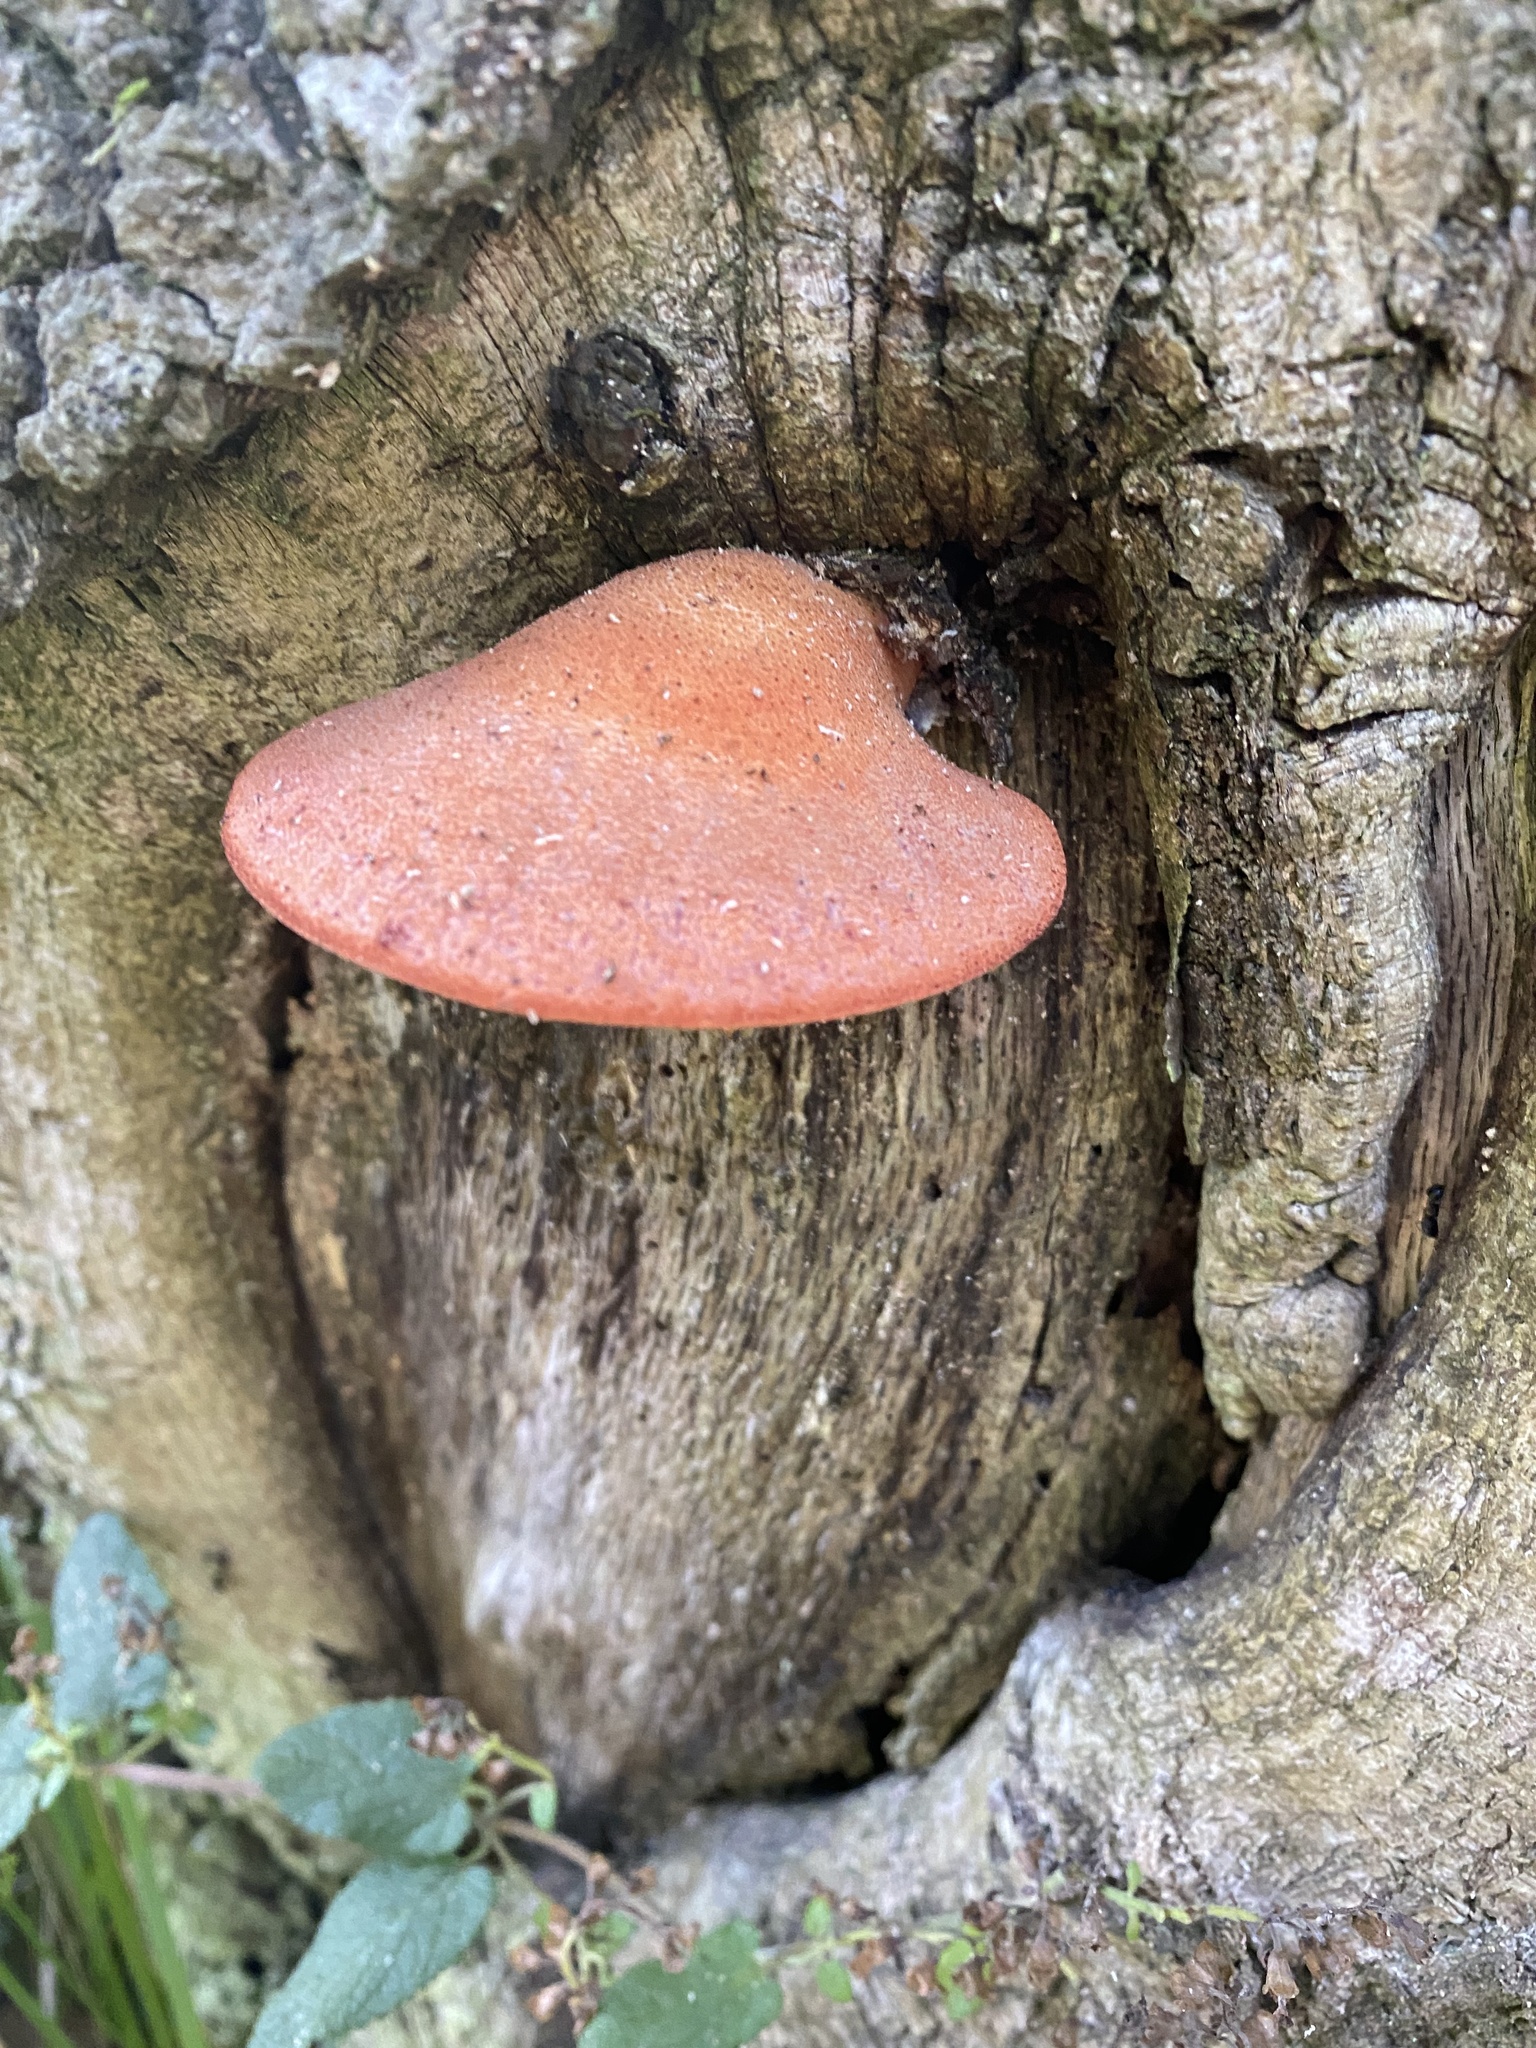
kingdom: Fungi
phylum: Basidiomycota
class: Agaricomycetes
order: Agaricales
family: Fistulinaceae
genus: Fistulina
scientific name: Fistulina hepatica
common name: Beef-steak fungus
